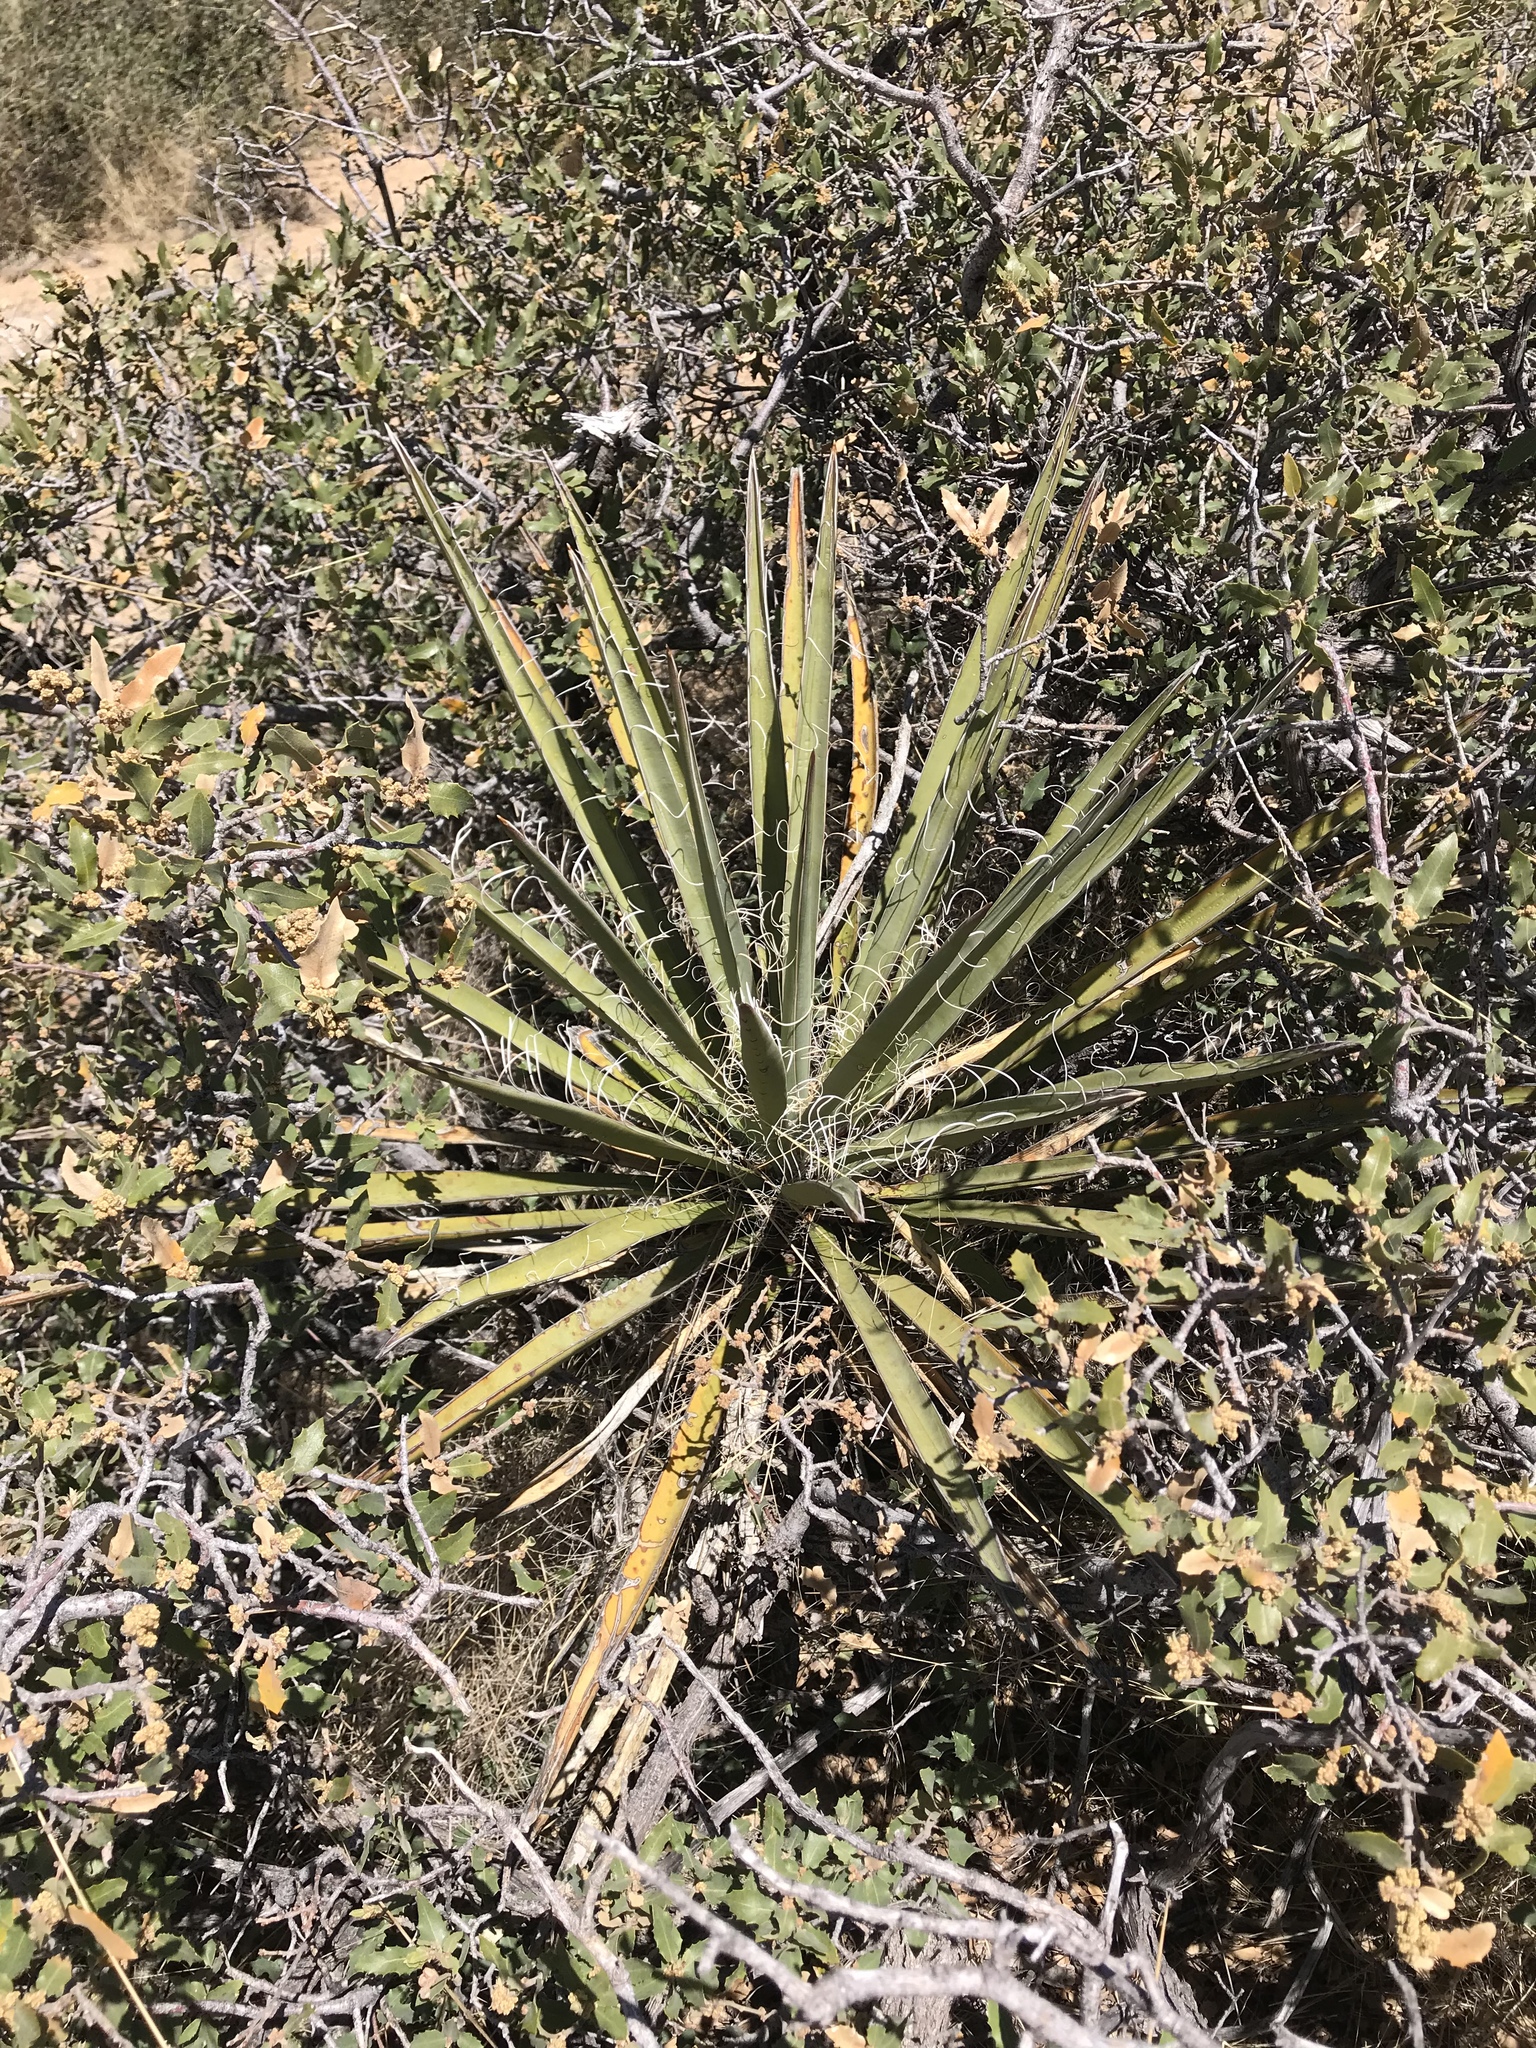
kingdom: Plantae
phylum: Tracheophyta
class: Liliopsida
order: Asparagales
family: Asparagaceae
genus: Yucca
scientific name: Yucca baccata
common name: Banana yucca
